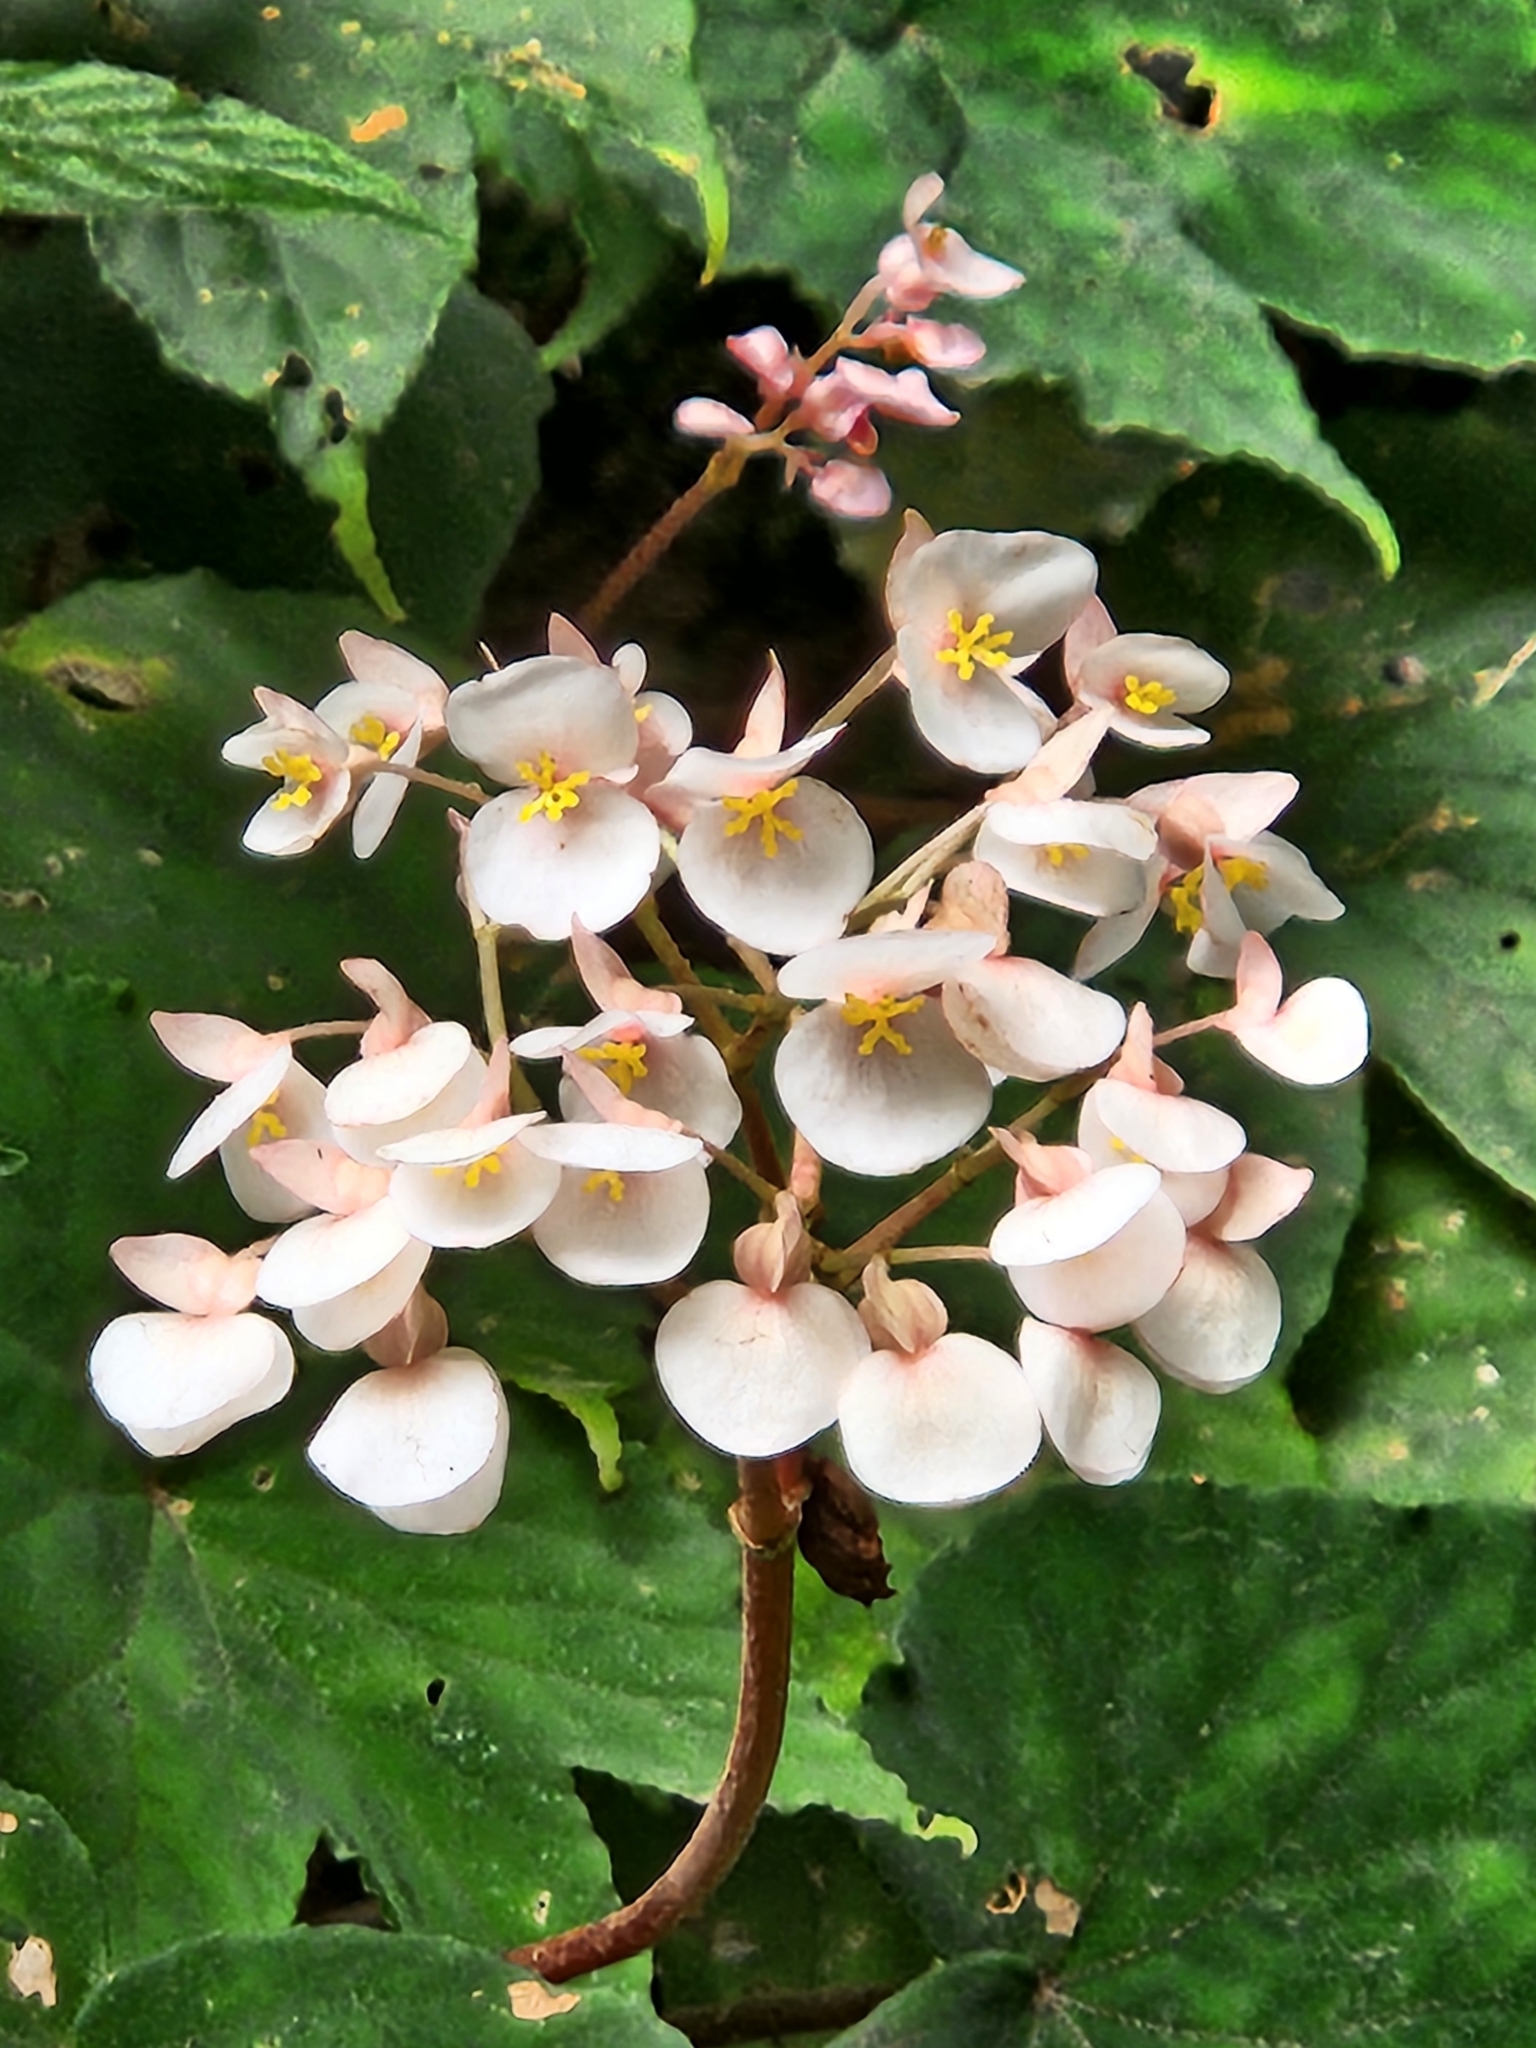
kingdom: Plantae
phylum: Tracheophyta
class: Magnoliopsida
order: Cucurbitales
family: Begoniaceae
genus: Begonia
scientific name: Begonia involucrata
